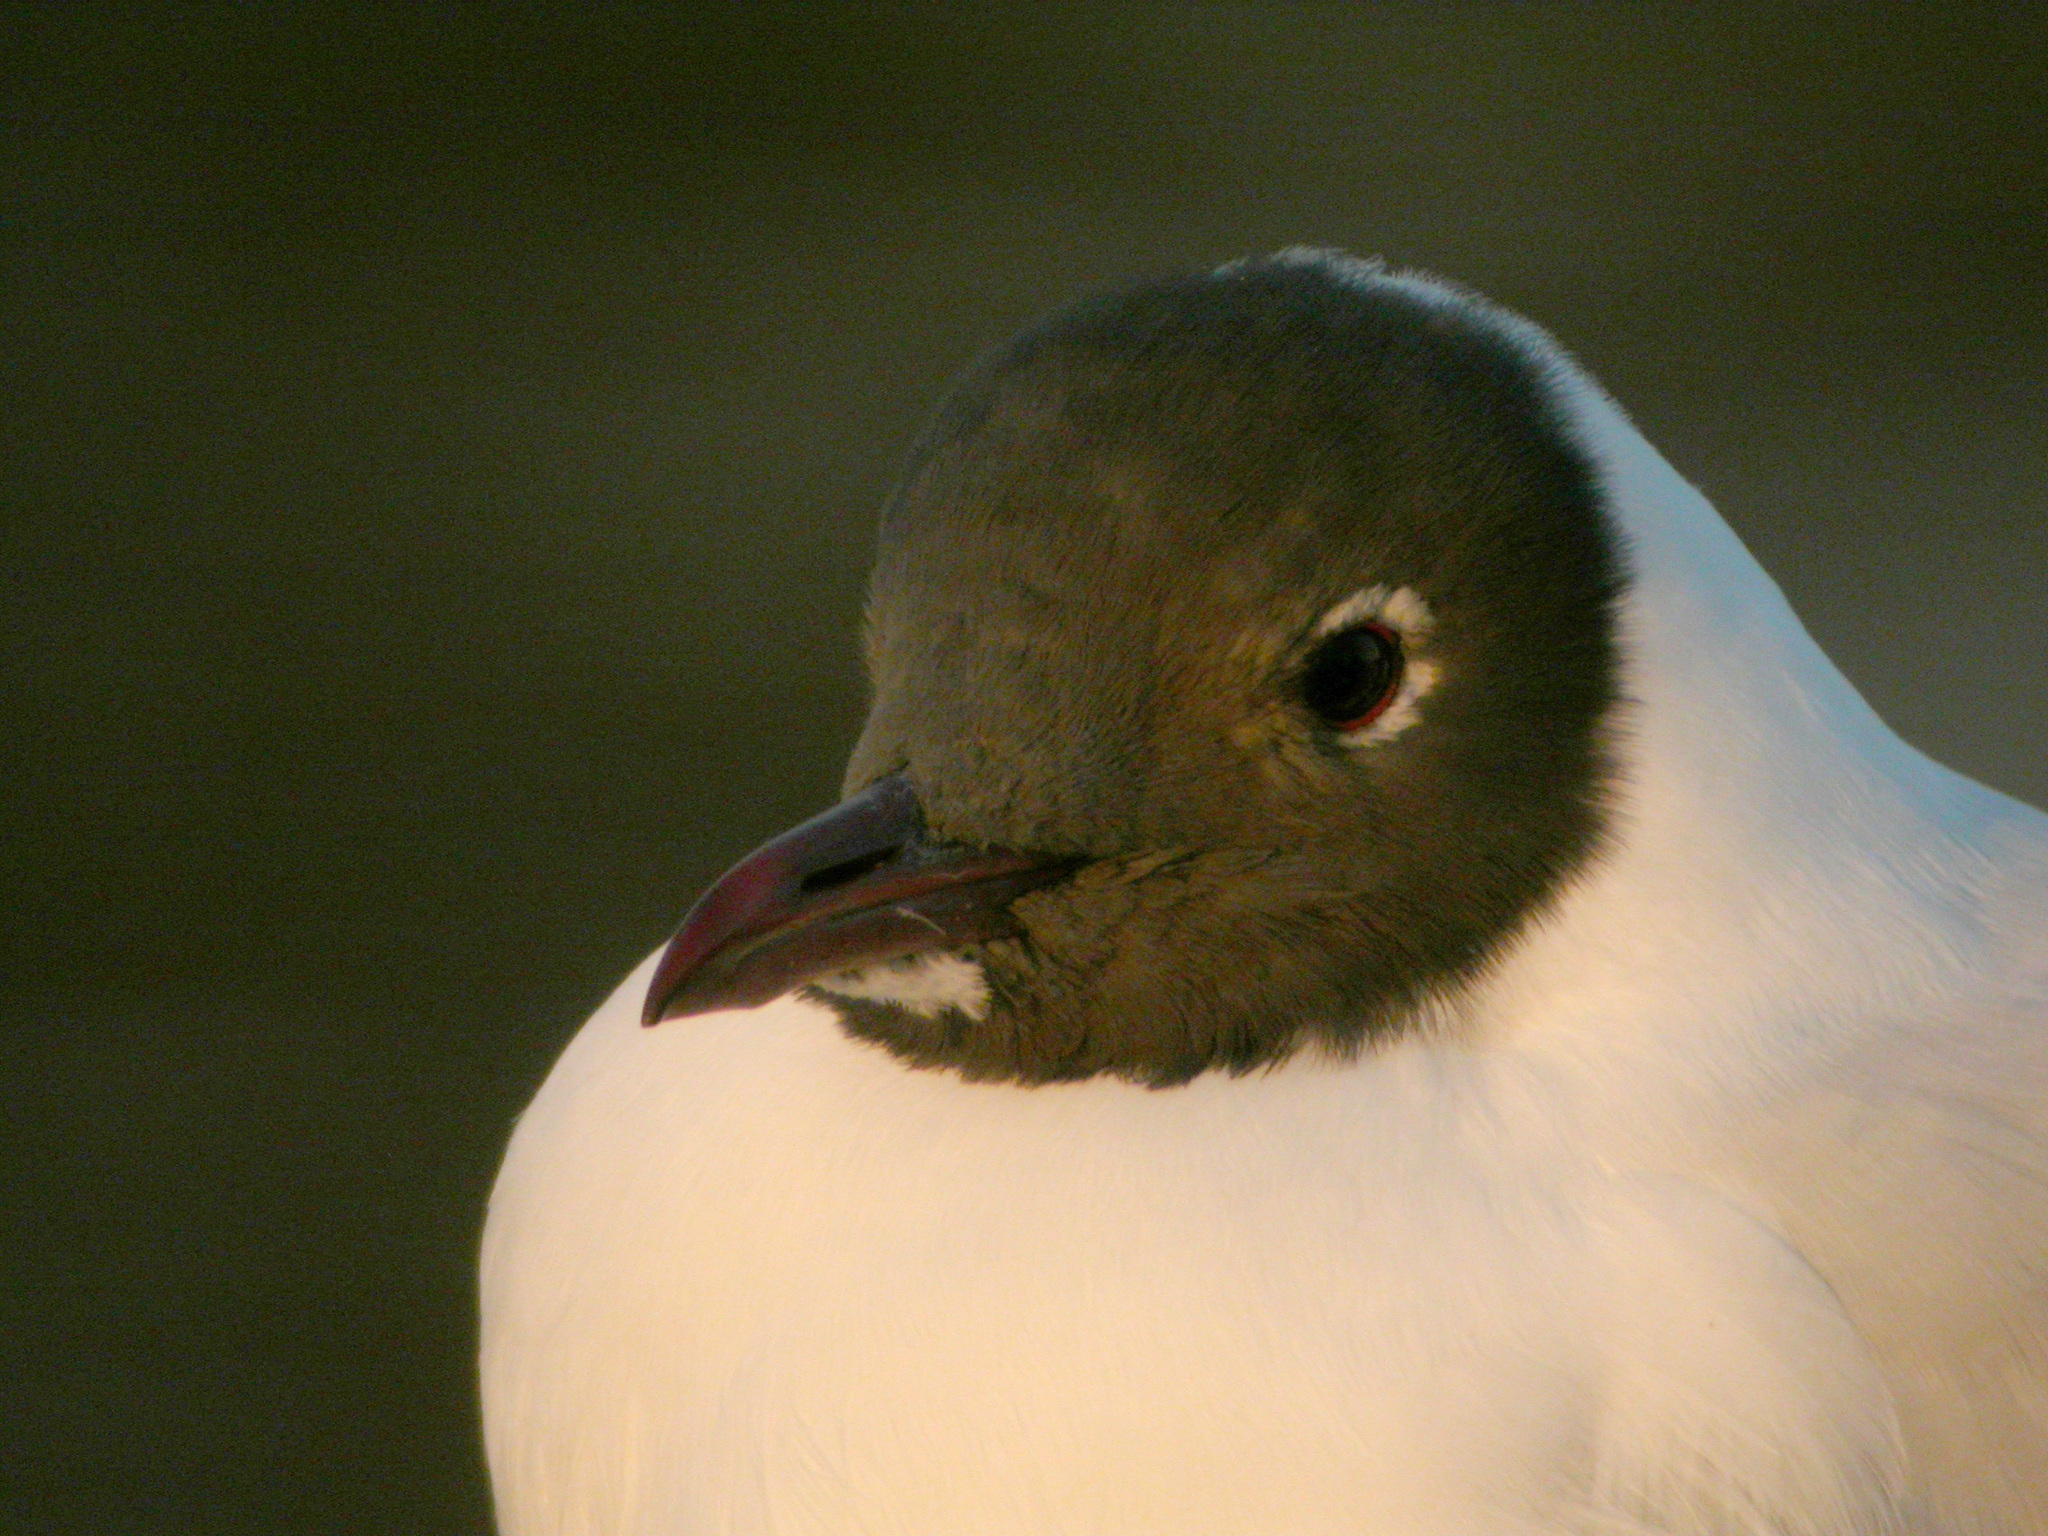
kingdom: Animalia
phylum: Chordata
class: Aves
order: Charadriiformes
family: Laridae
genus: Chroicocephalus
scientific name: Chroicocephalus ridibundus
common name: Black-headed gull
